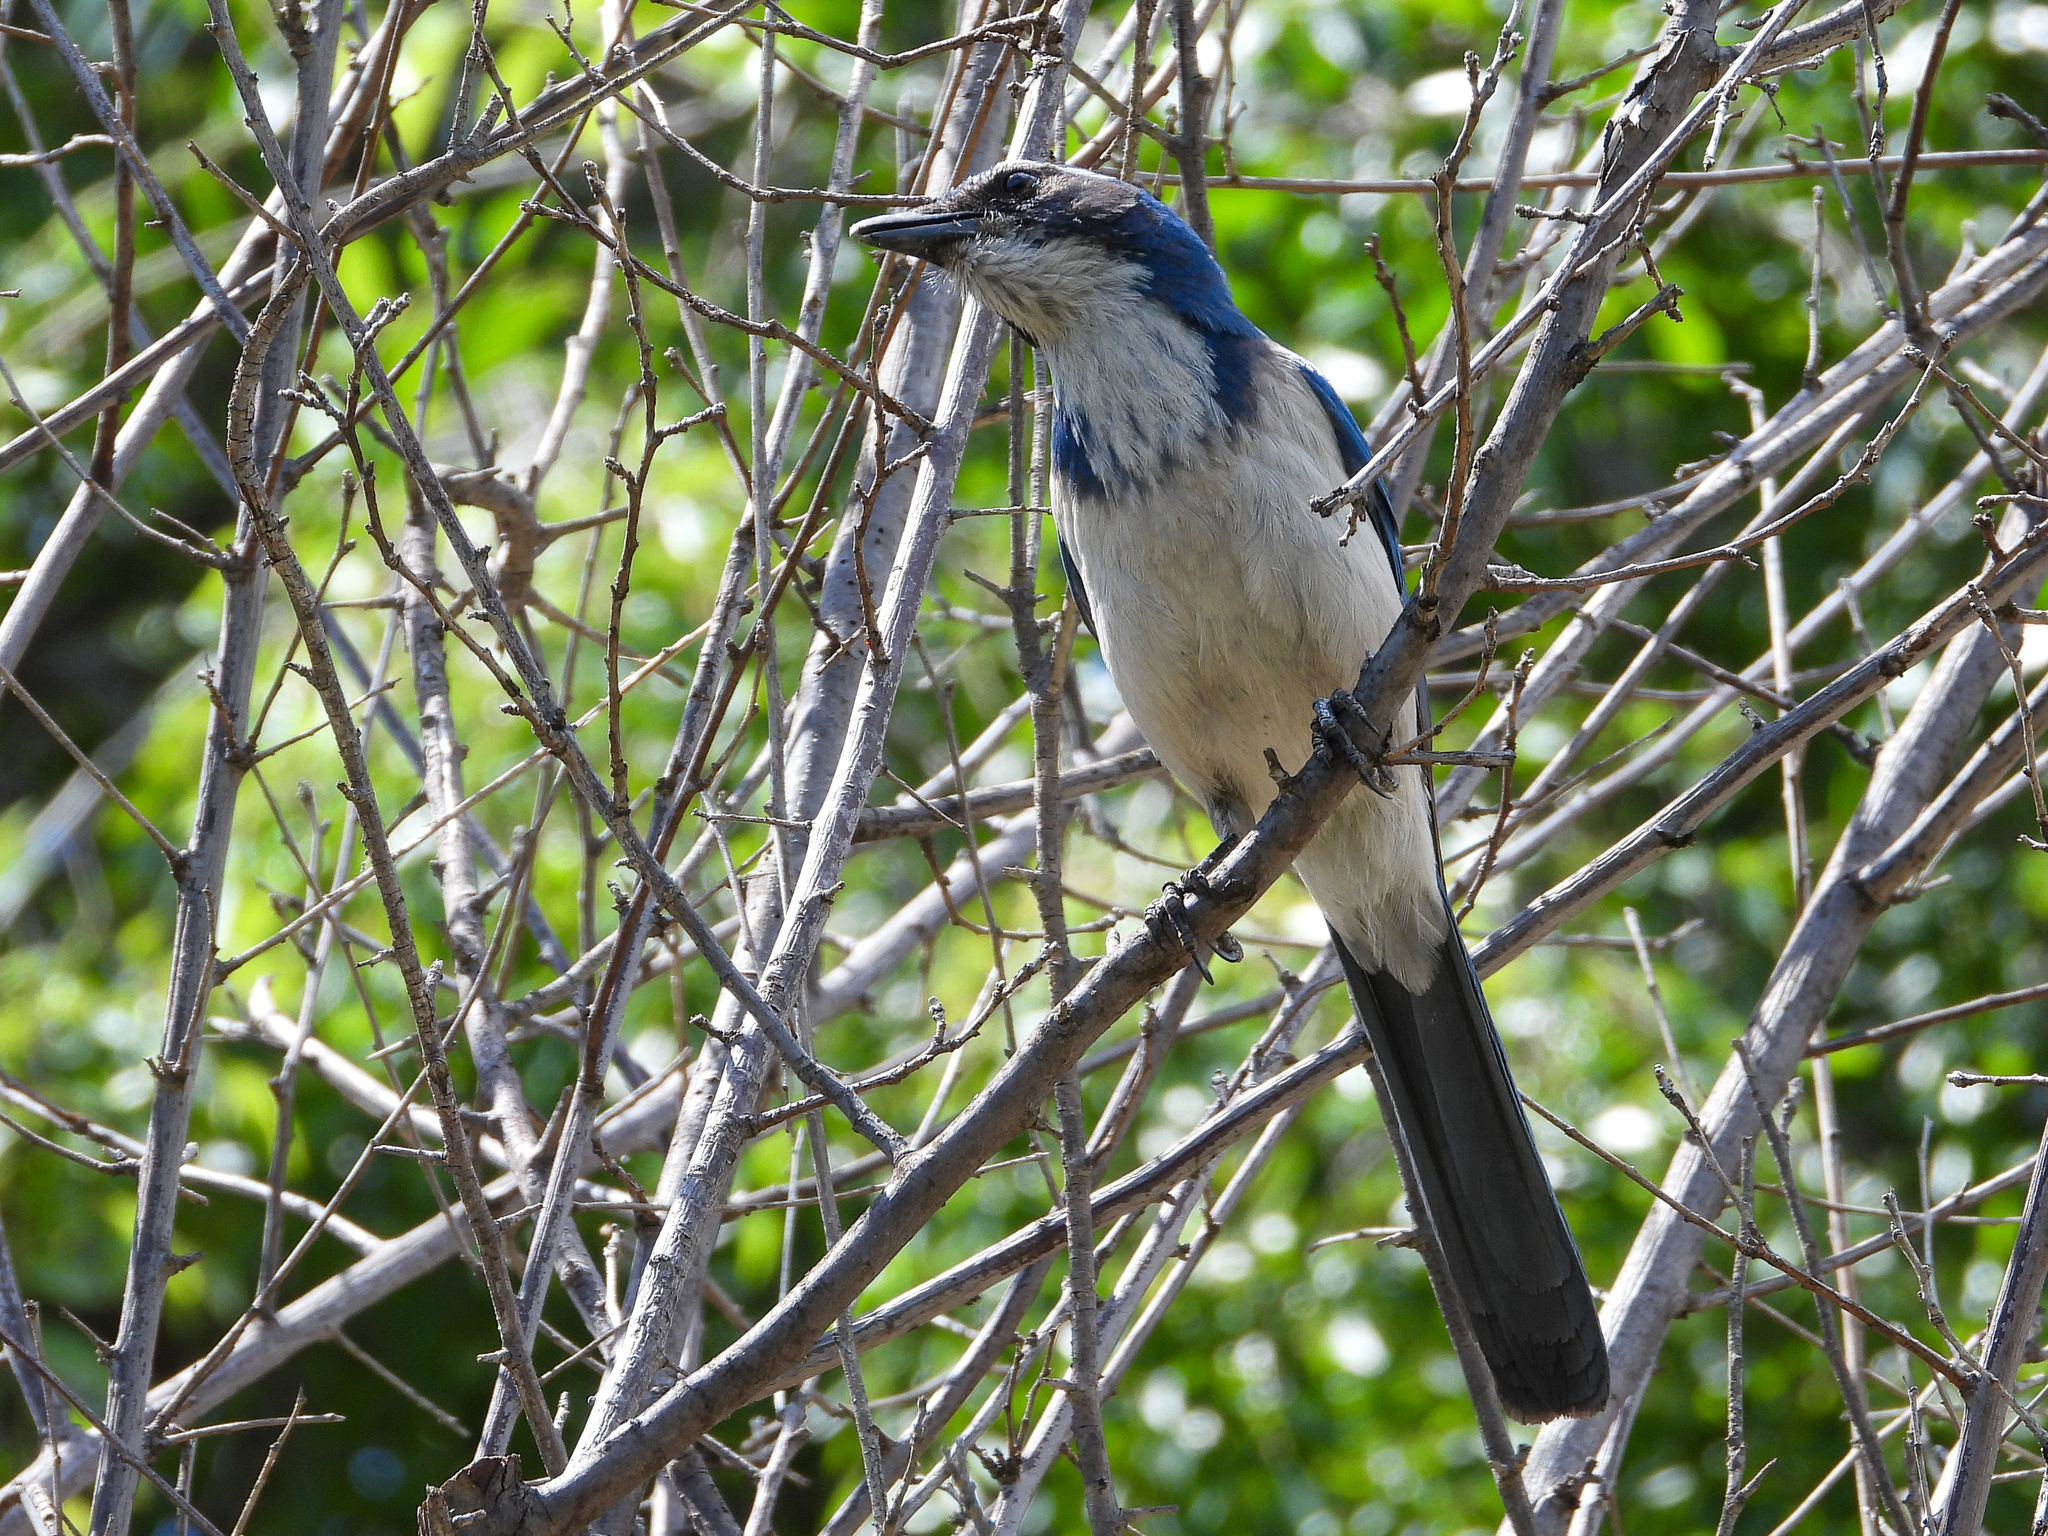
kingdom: Animalia
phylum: Chordata
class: Aves
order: Passeriformes
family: Corvidae
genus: Aphelocoma
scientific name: Aphelocoma californica
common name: California scrub-jay
